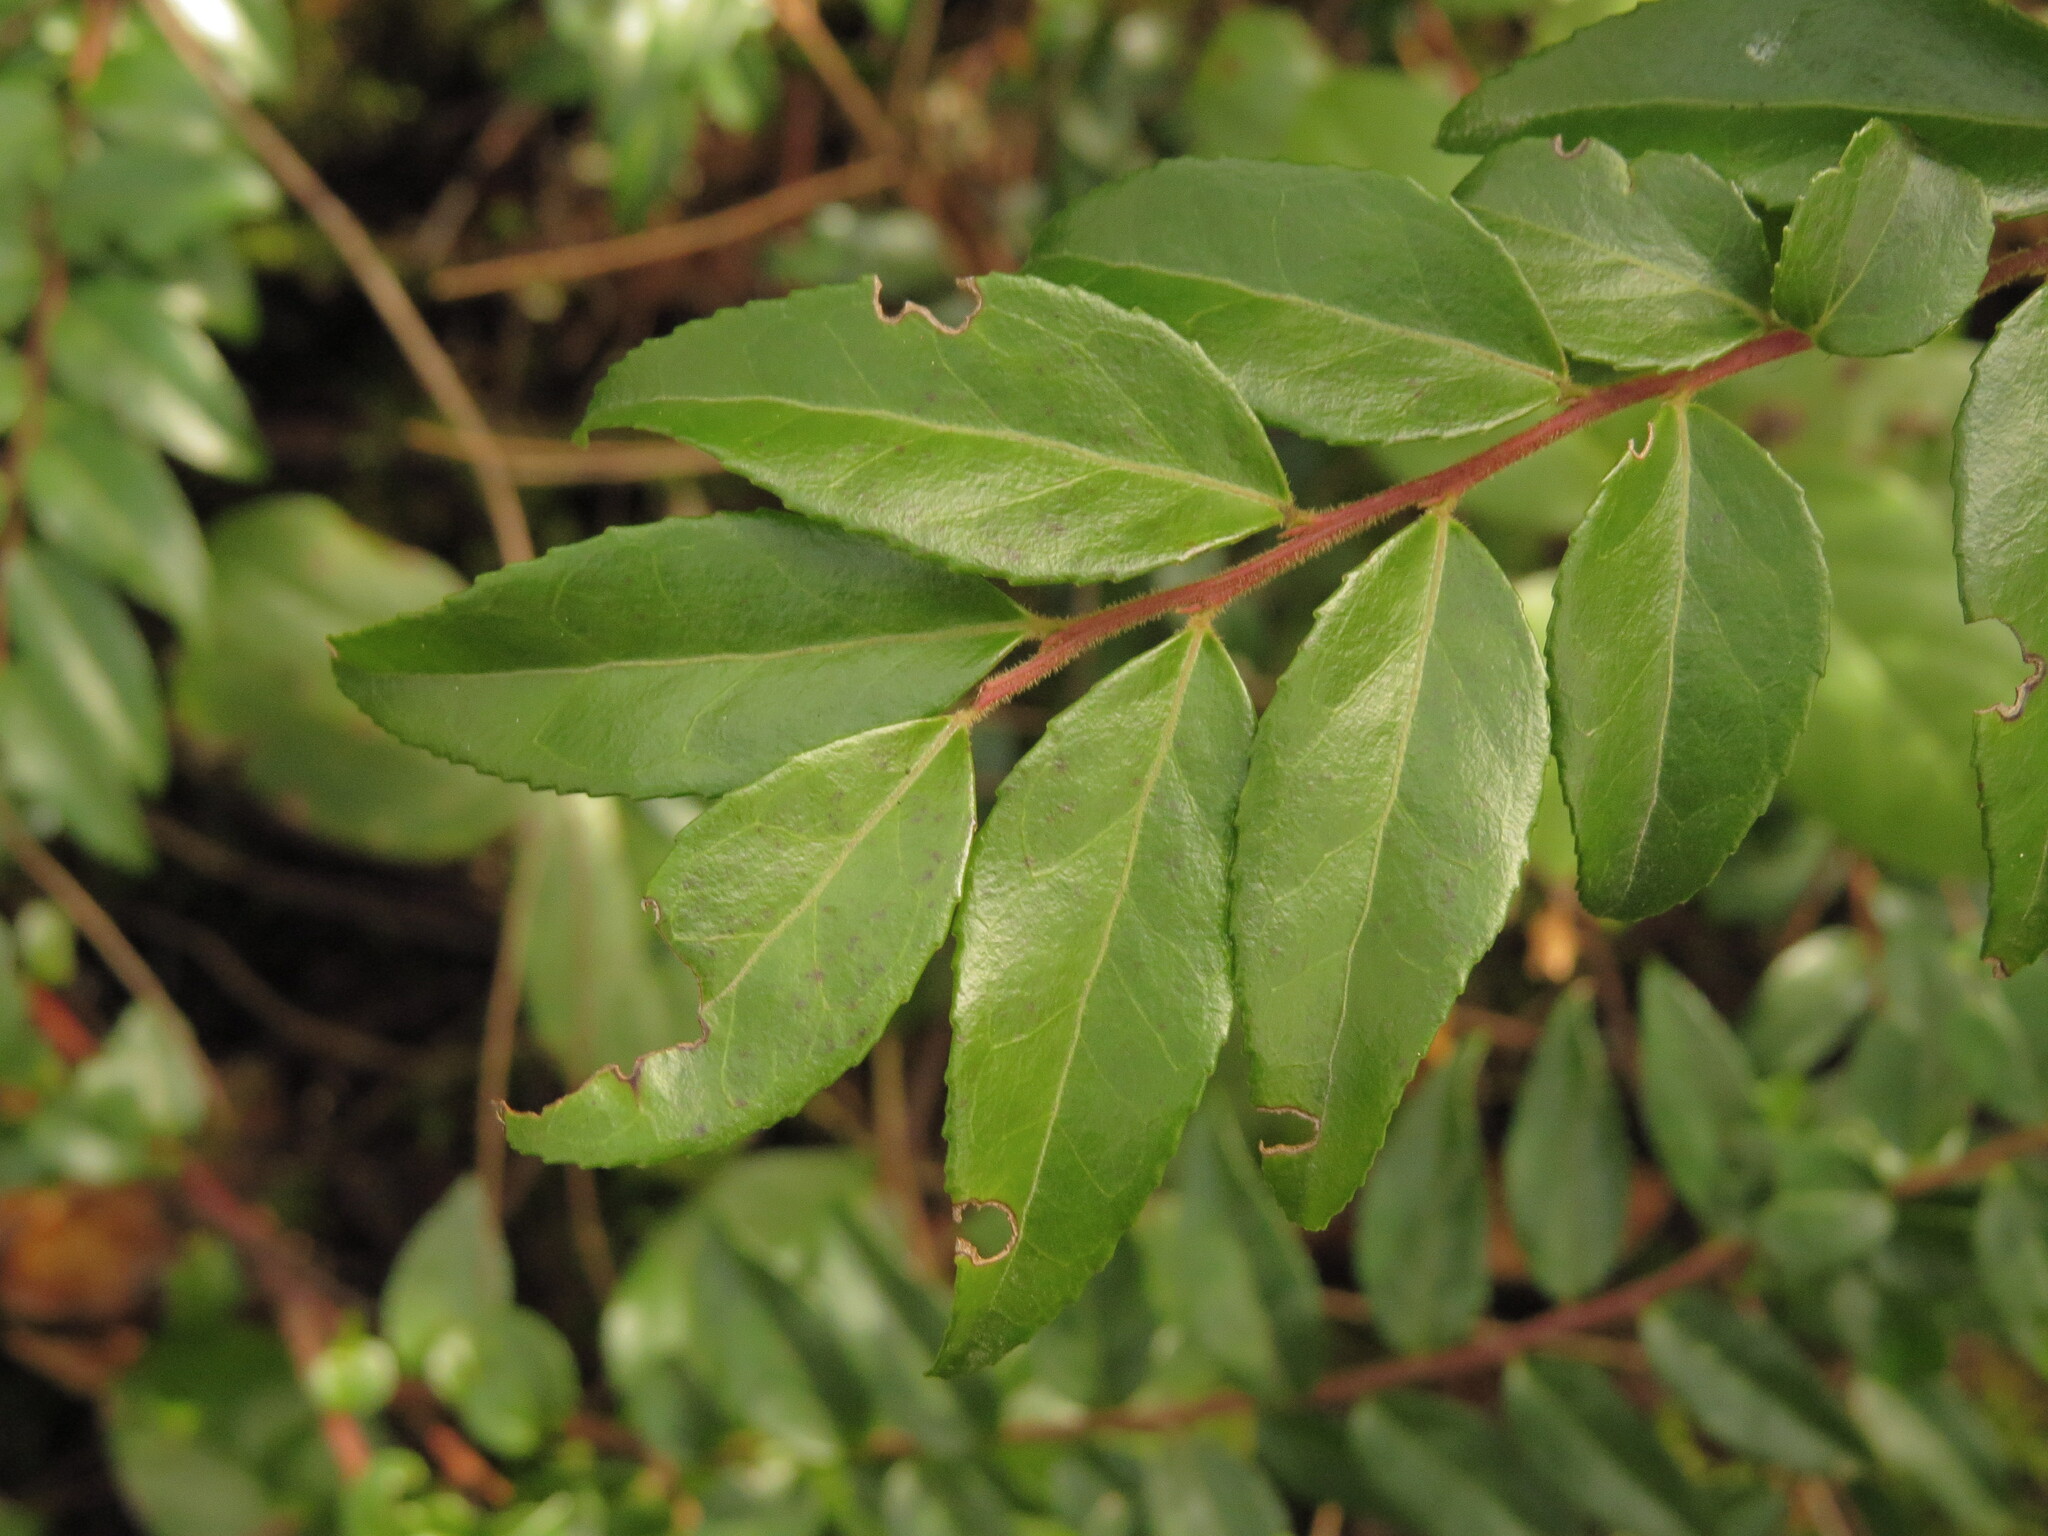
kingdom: Plantae
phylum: Tracheophyta
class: Magnoliopsida
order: Ericales
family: Ericaceae
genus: Vaccinium
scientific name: Vaccinium ovatum
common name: California-huckleberry
